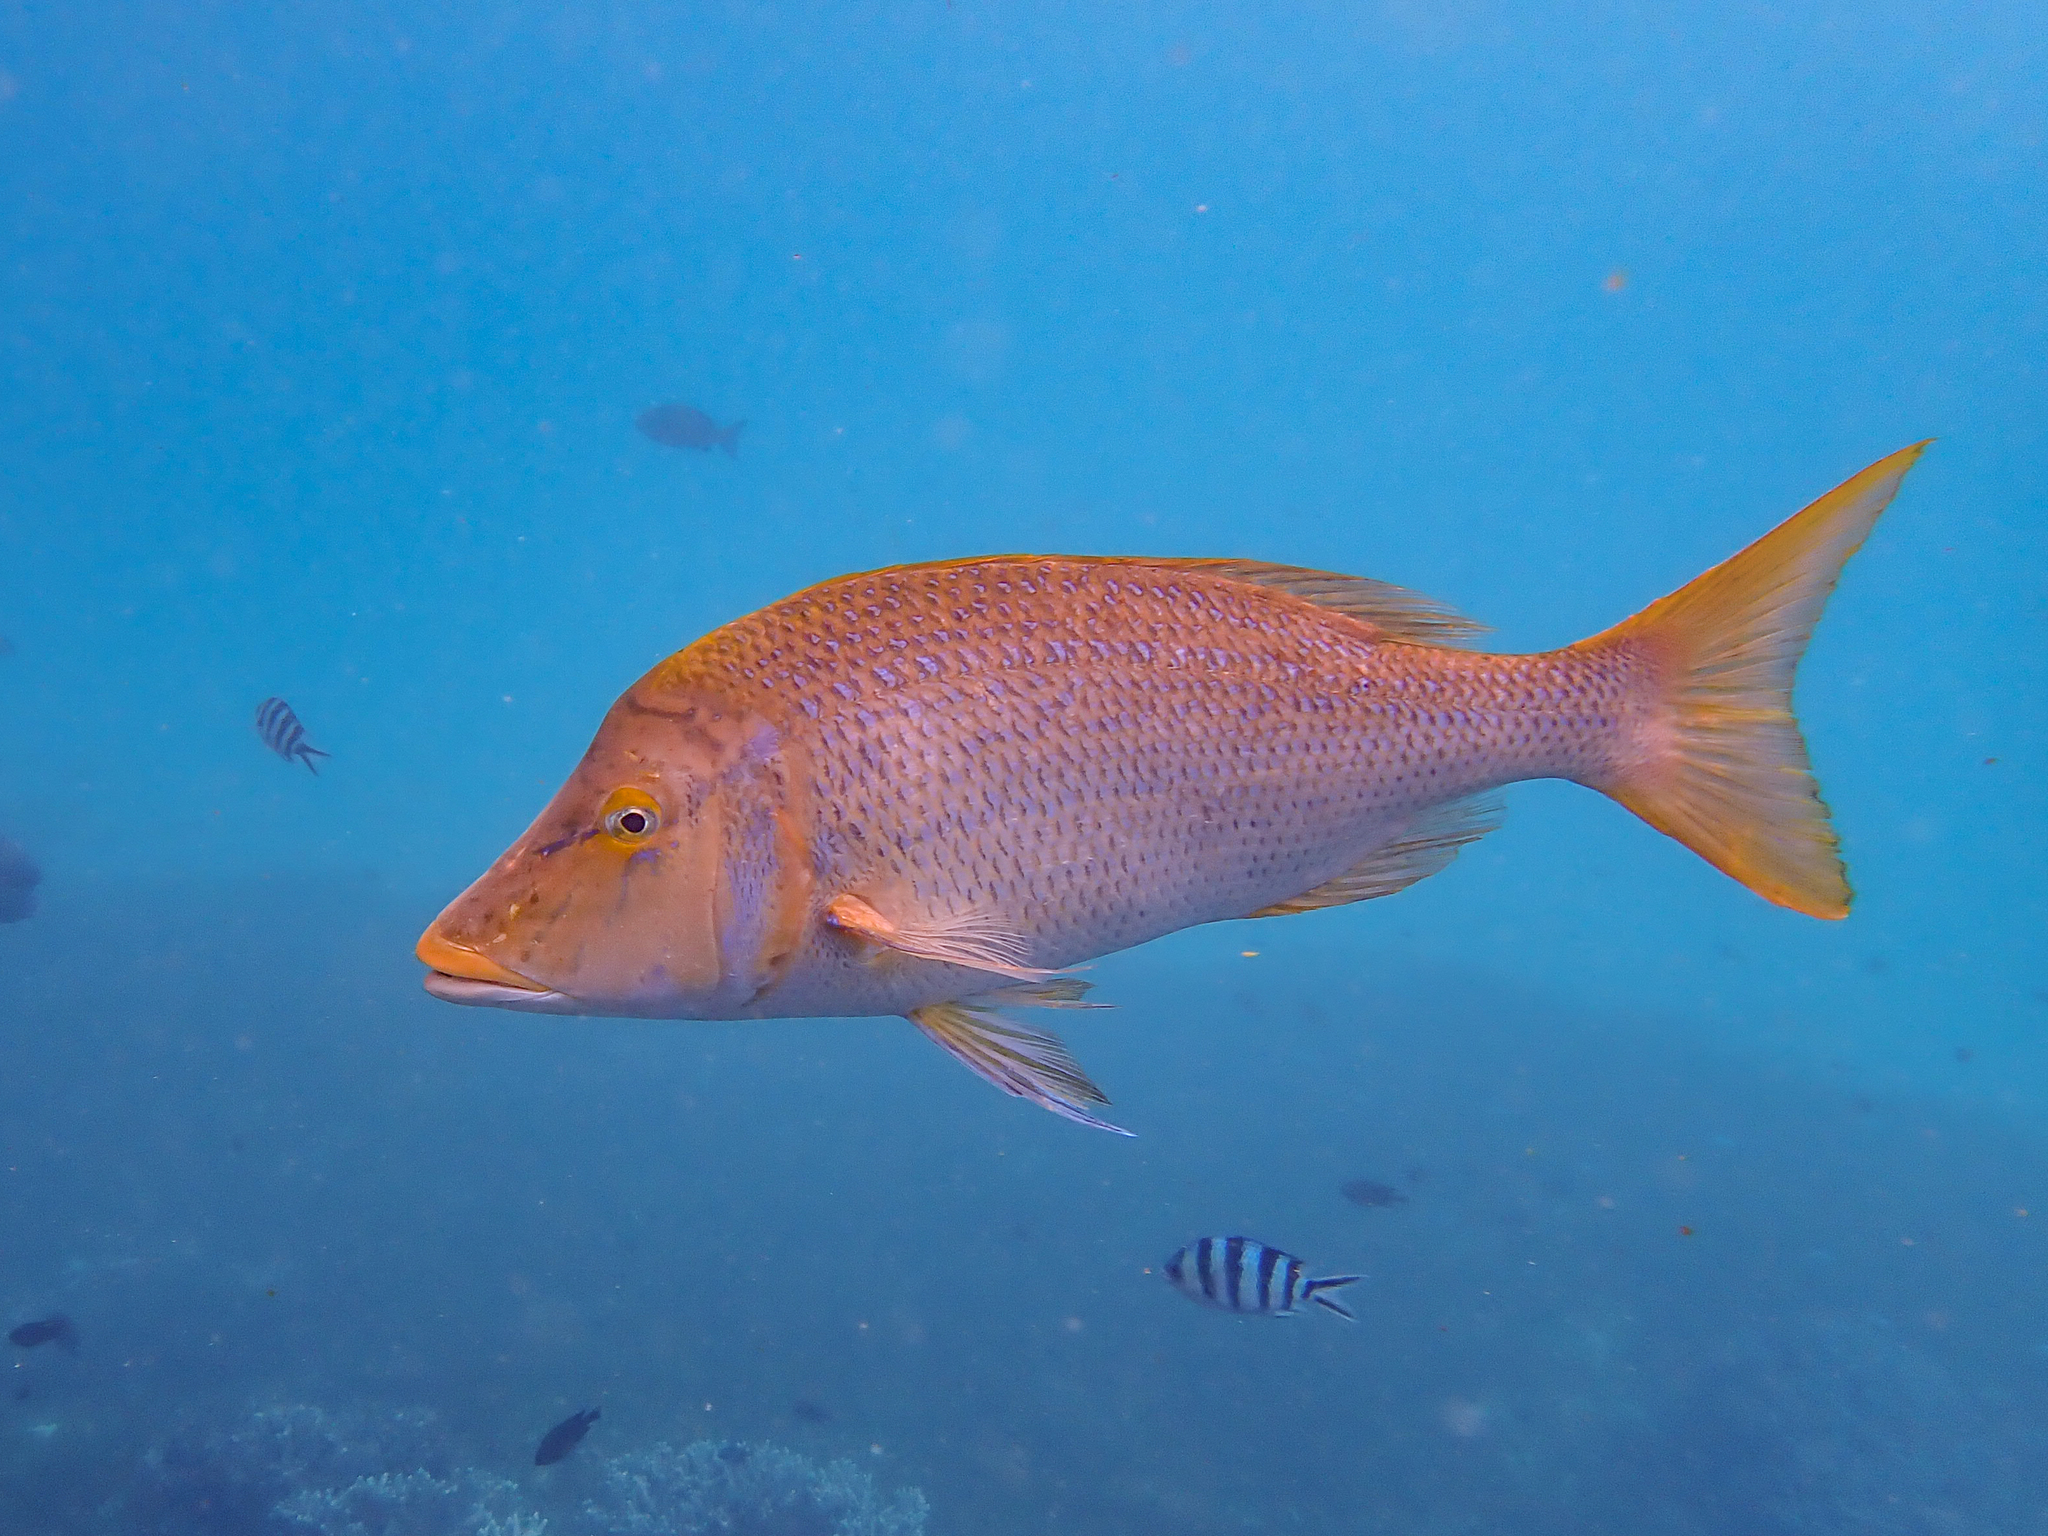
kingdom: Animalia
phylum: Chordata
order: Perciformes
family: Lethrinidae
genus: Lethrinus
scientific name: Lethrinus nebulosus
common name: Spangled emperor
